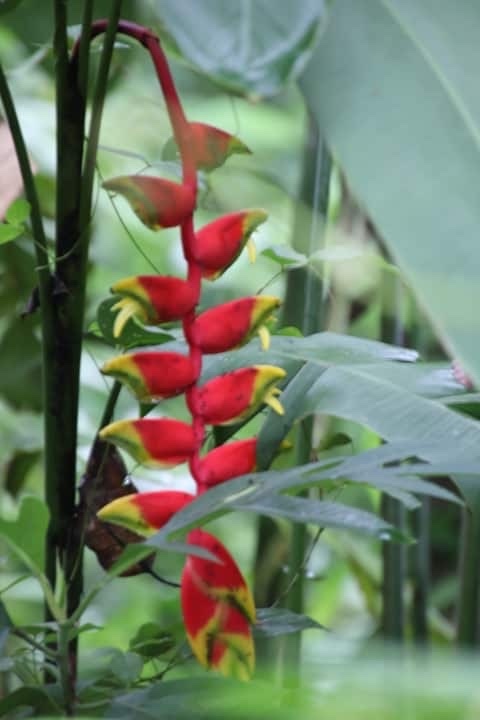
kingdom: Plantae
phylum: Tracheophyta
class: Liliopsida
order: Zingiberales
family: Heliconiaceae
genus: Heliconia
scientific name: Heliconia rostrata
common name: False bird of paradise
